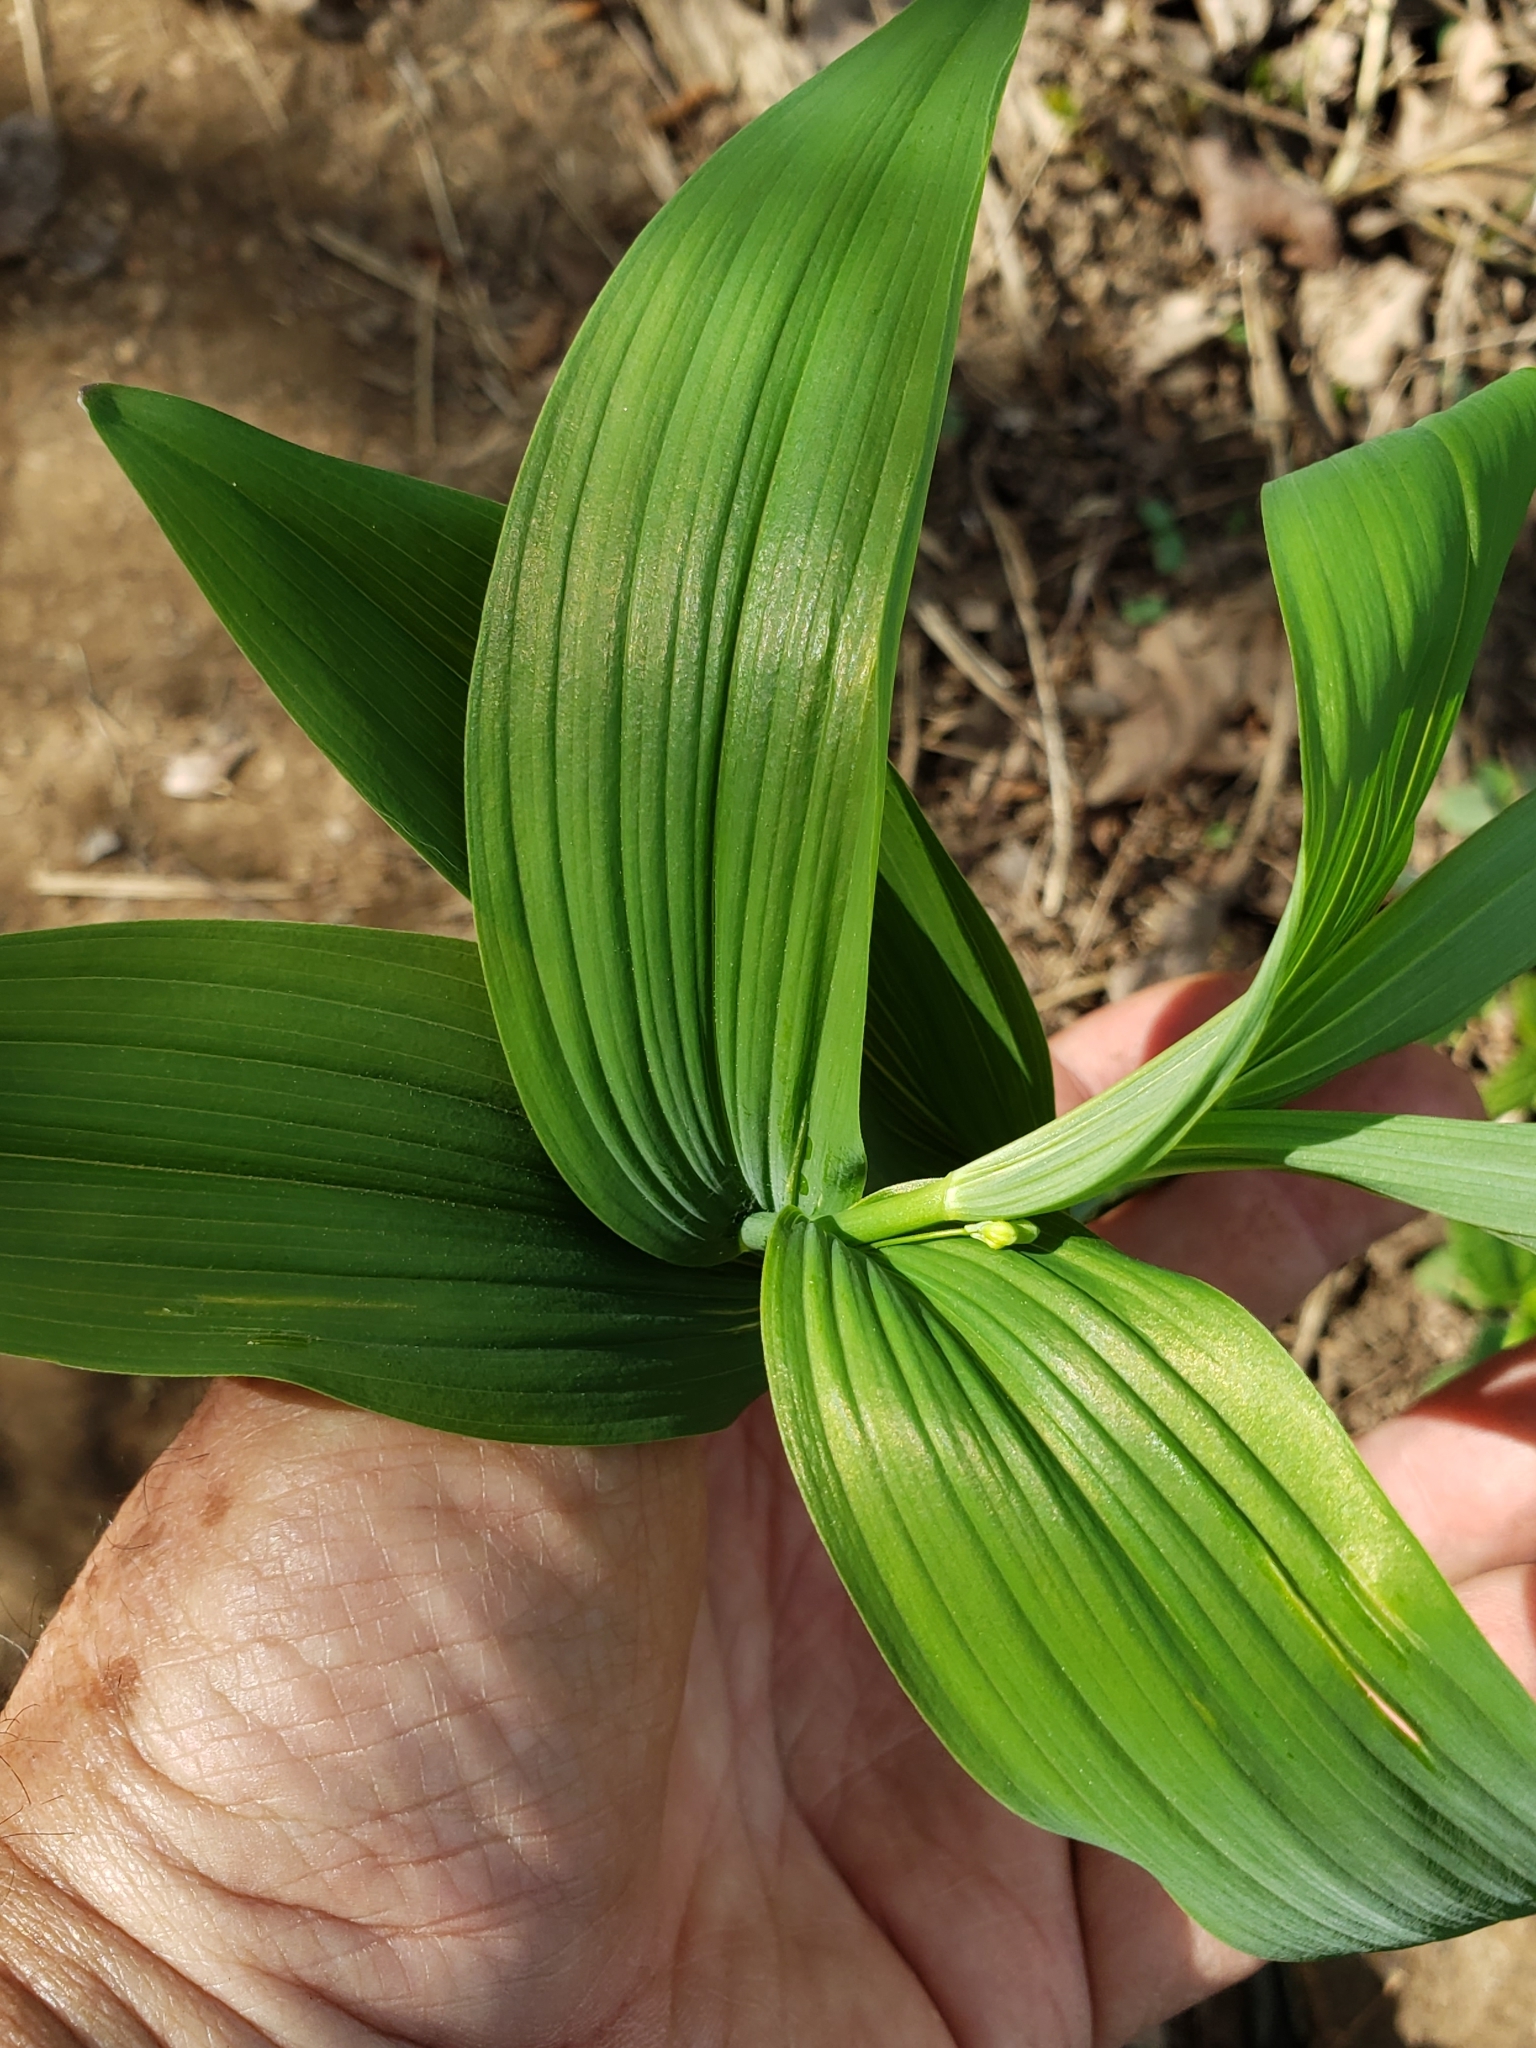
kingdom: Plantae
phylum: Tracheophyta
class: Liliopsida
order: Asparagales
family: Asparagaceae
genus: Polygonatum
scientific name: Polygonatum biflorum
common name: American solomon's-seal
